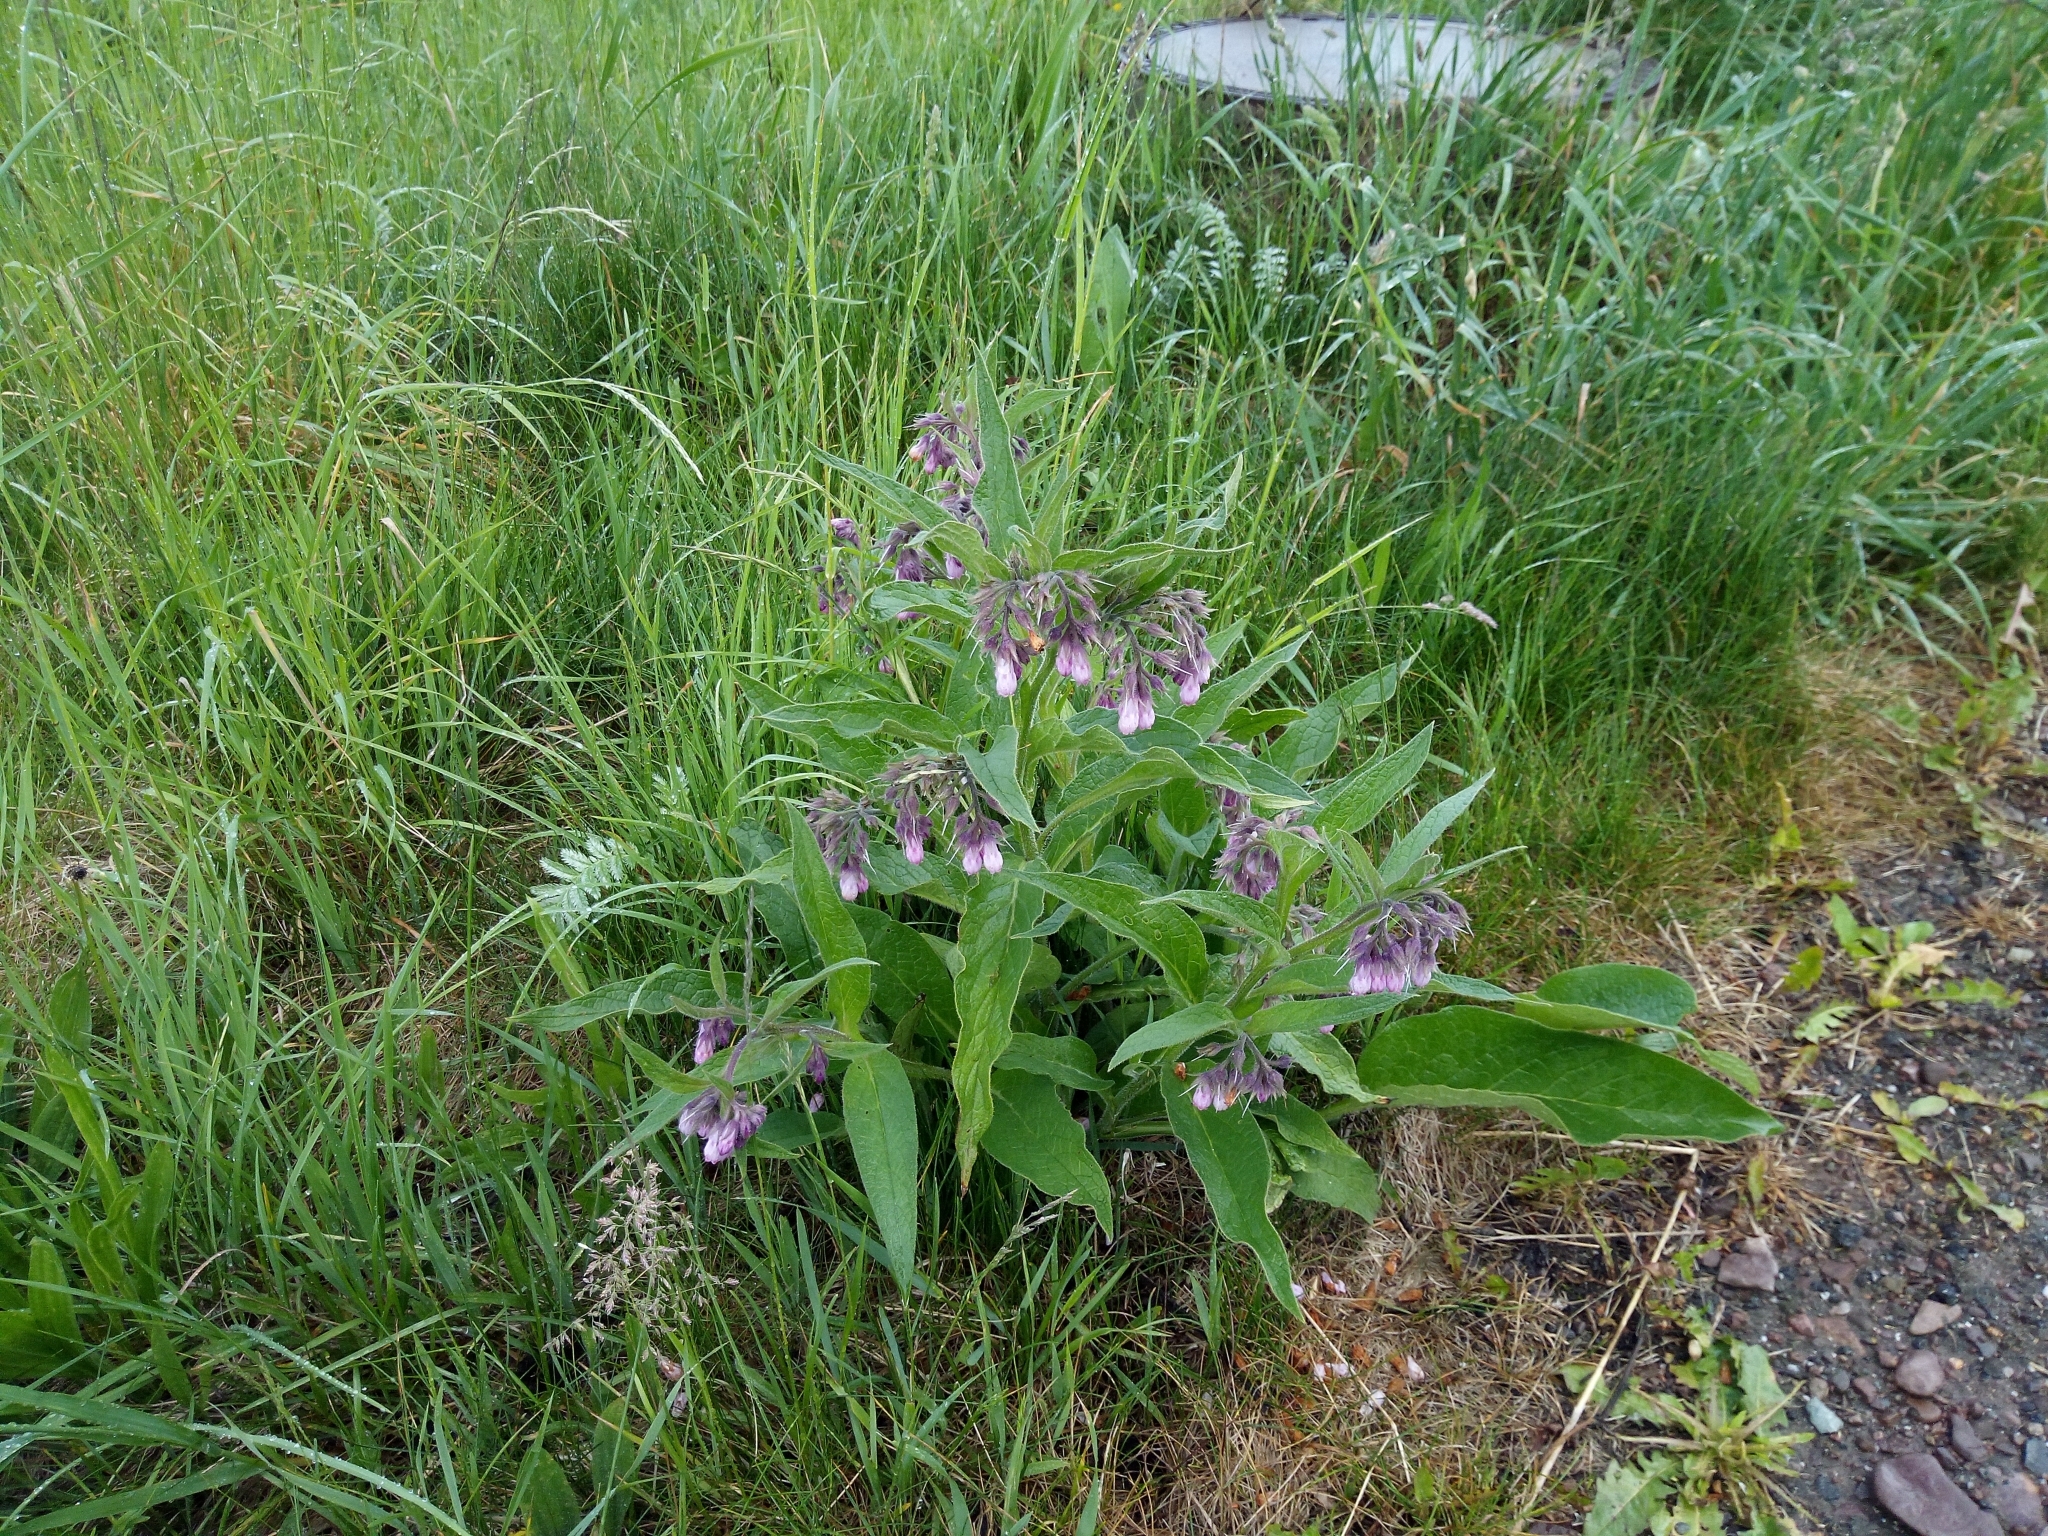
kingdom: Plantae
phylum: Tracheophyta
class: Magnoliopsida
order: Boraginales
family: Boraginaceae
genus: Symphytum
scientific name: Symphytum officinale
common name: Common comfrey
